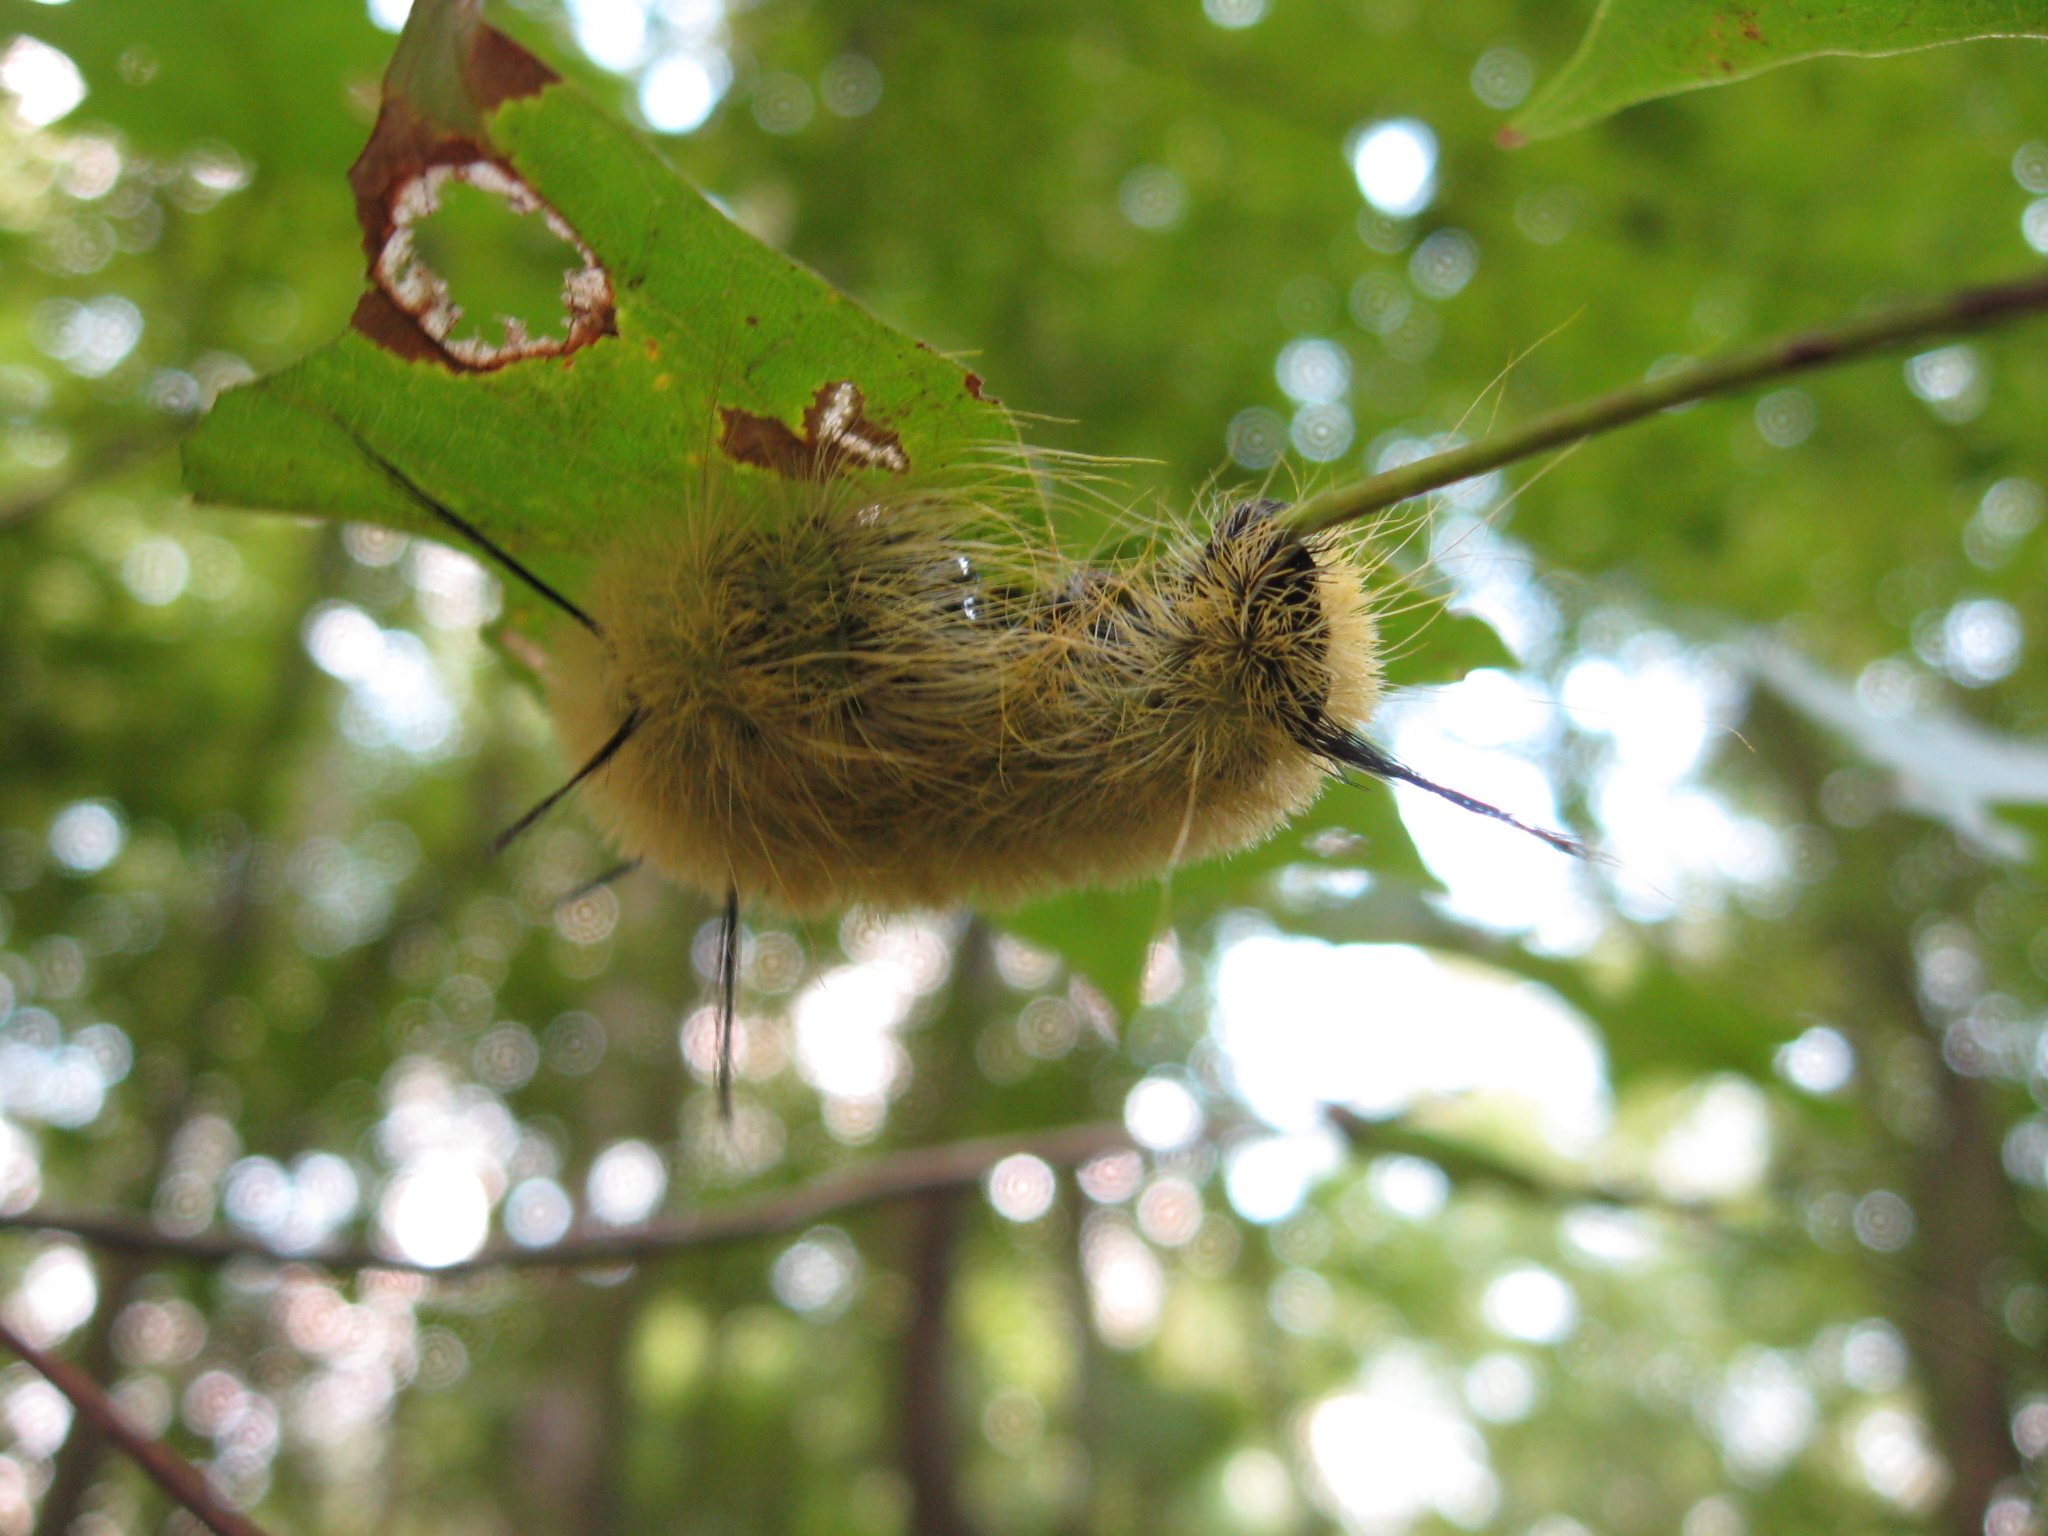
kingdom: Animalia
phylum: Arthropoda
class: Insecta
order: Lepidoptera
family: Noctuidae
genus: Acronicta
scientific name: Acronicta americana
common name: American dagger
